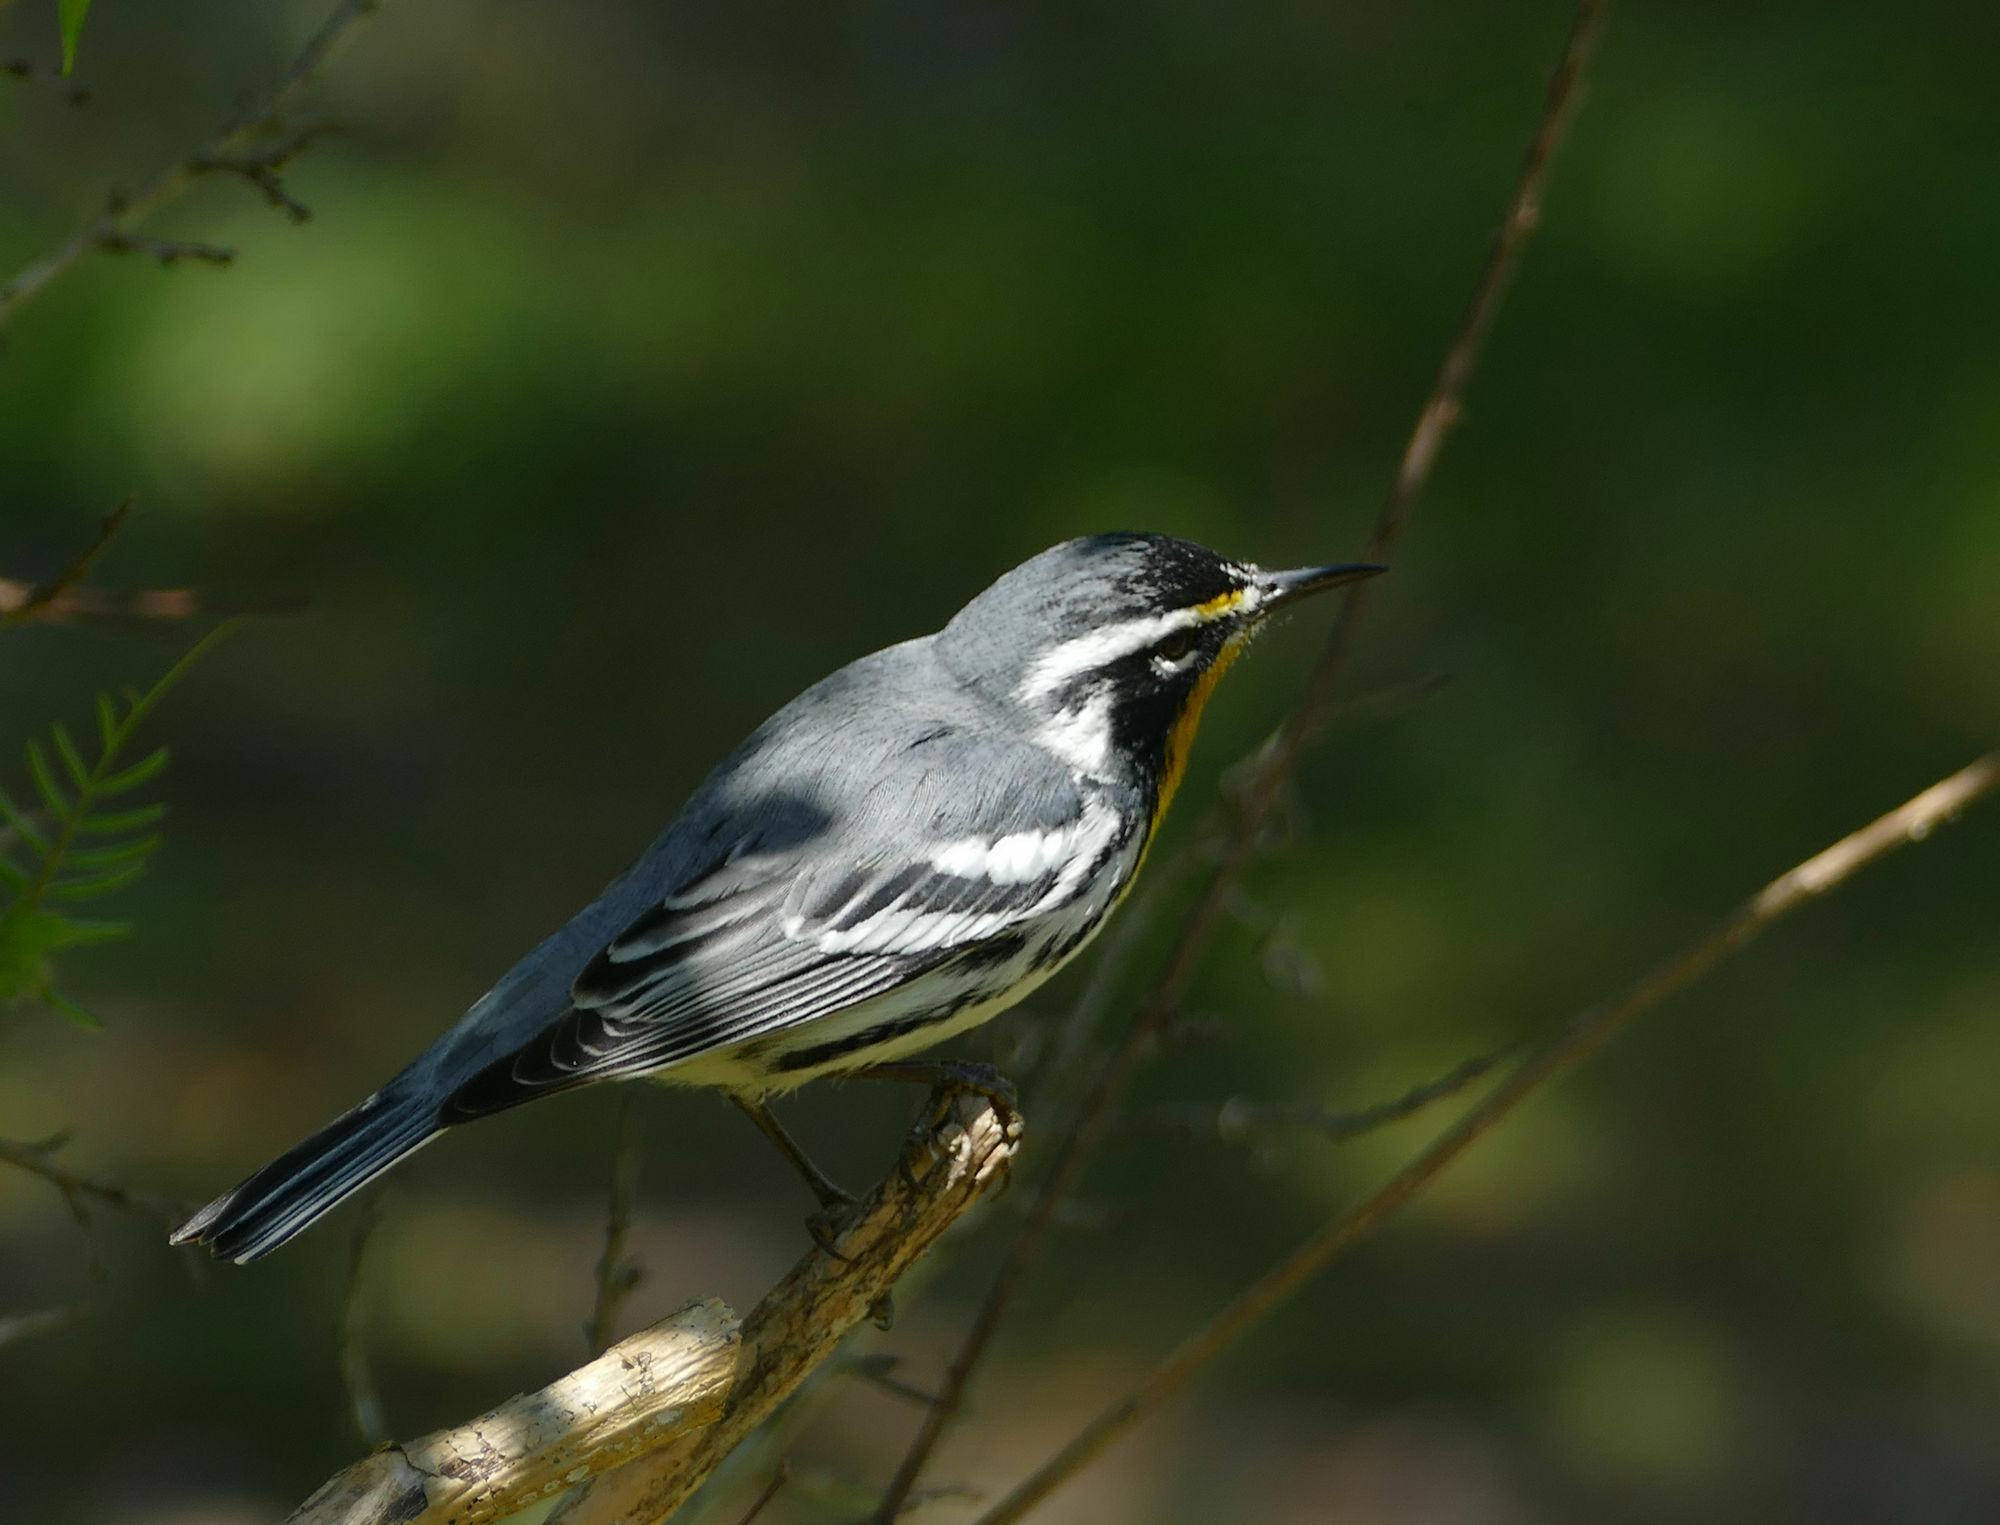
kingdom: Animalia
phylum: Chordata
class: Aves
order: Passeriformes
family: Parulidae
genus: Setophaga
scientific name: Setophaga dominica
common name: Yellow-throated warbler
